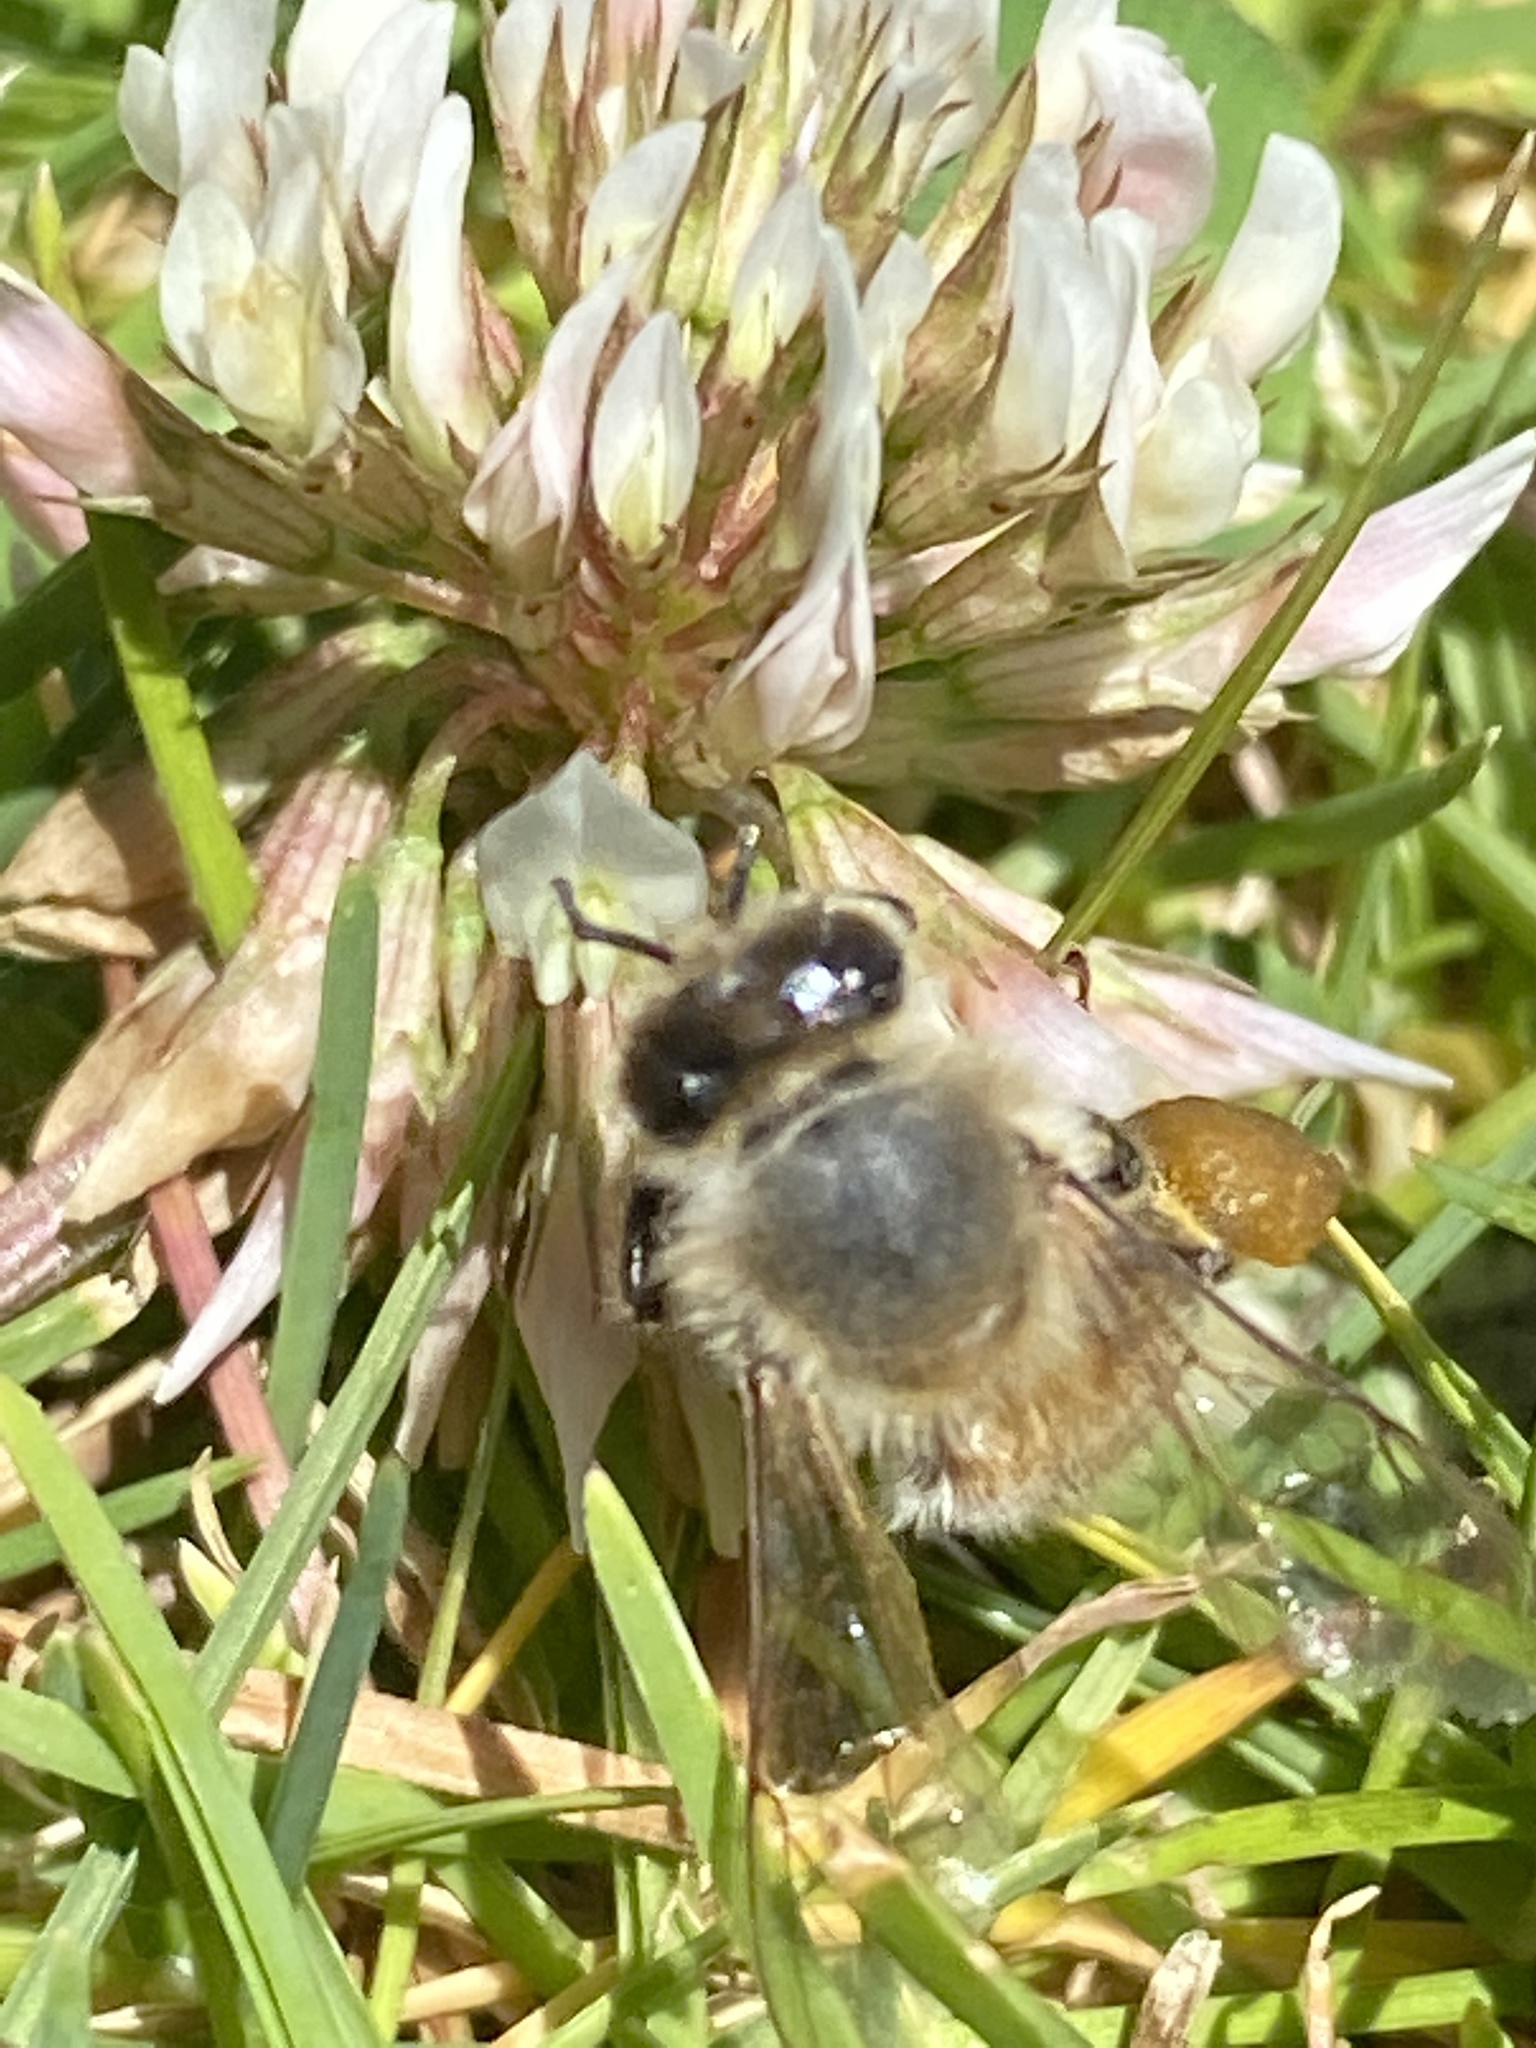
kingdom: Animalia
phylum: Arthropoda
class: Insecta
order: Hymenoptera
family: Apidae
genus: Apis
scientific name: Apis mellifera
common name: Honey bee
